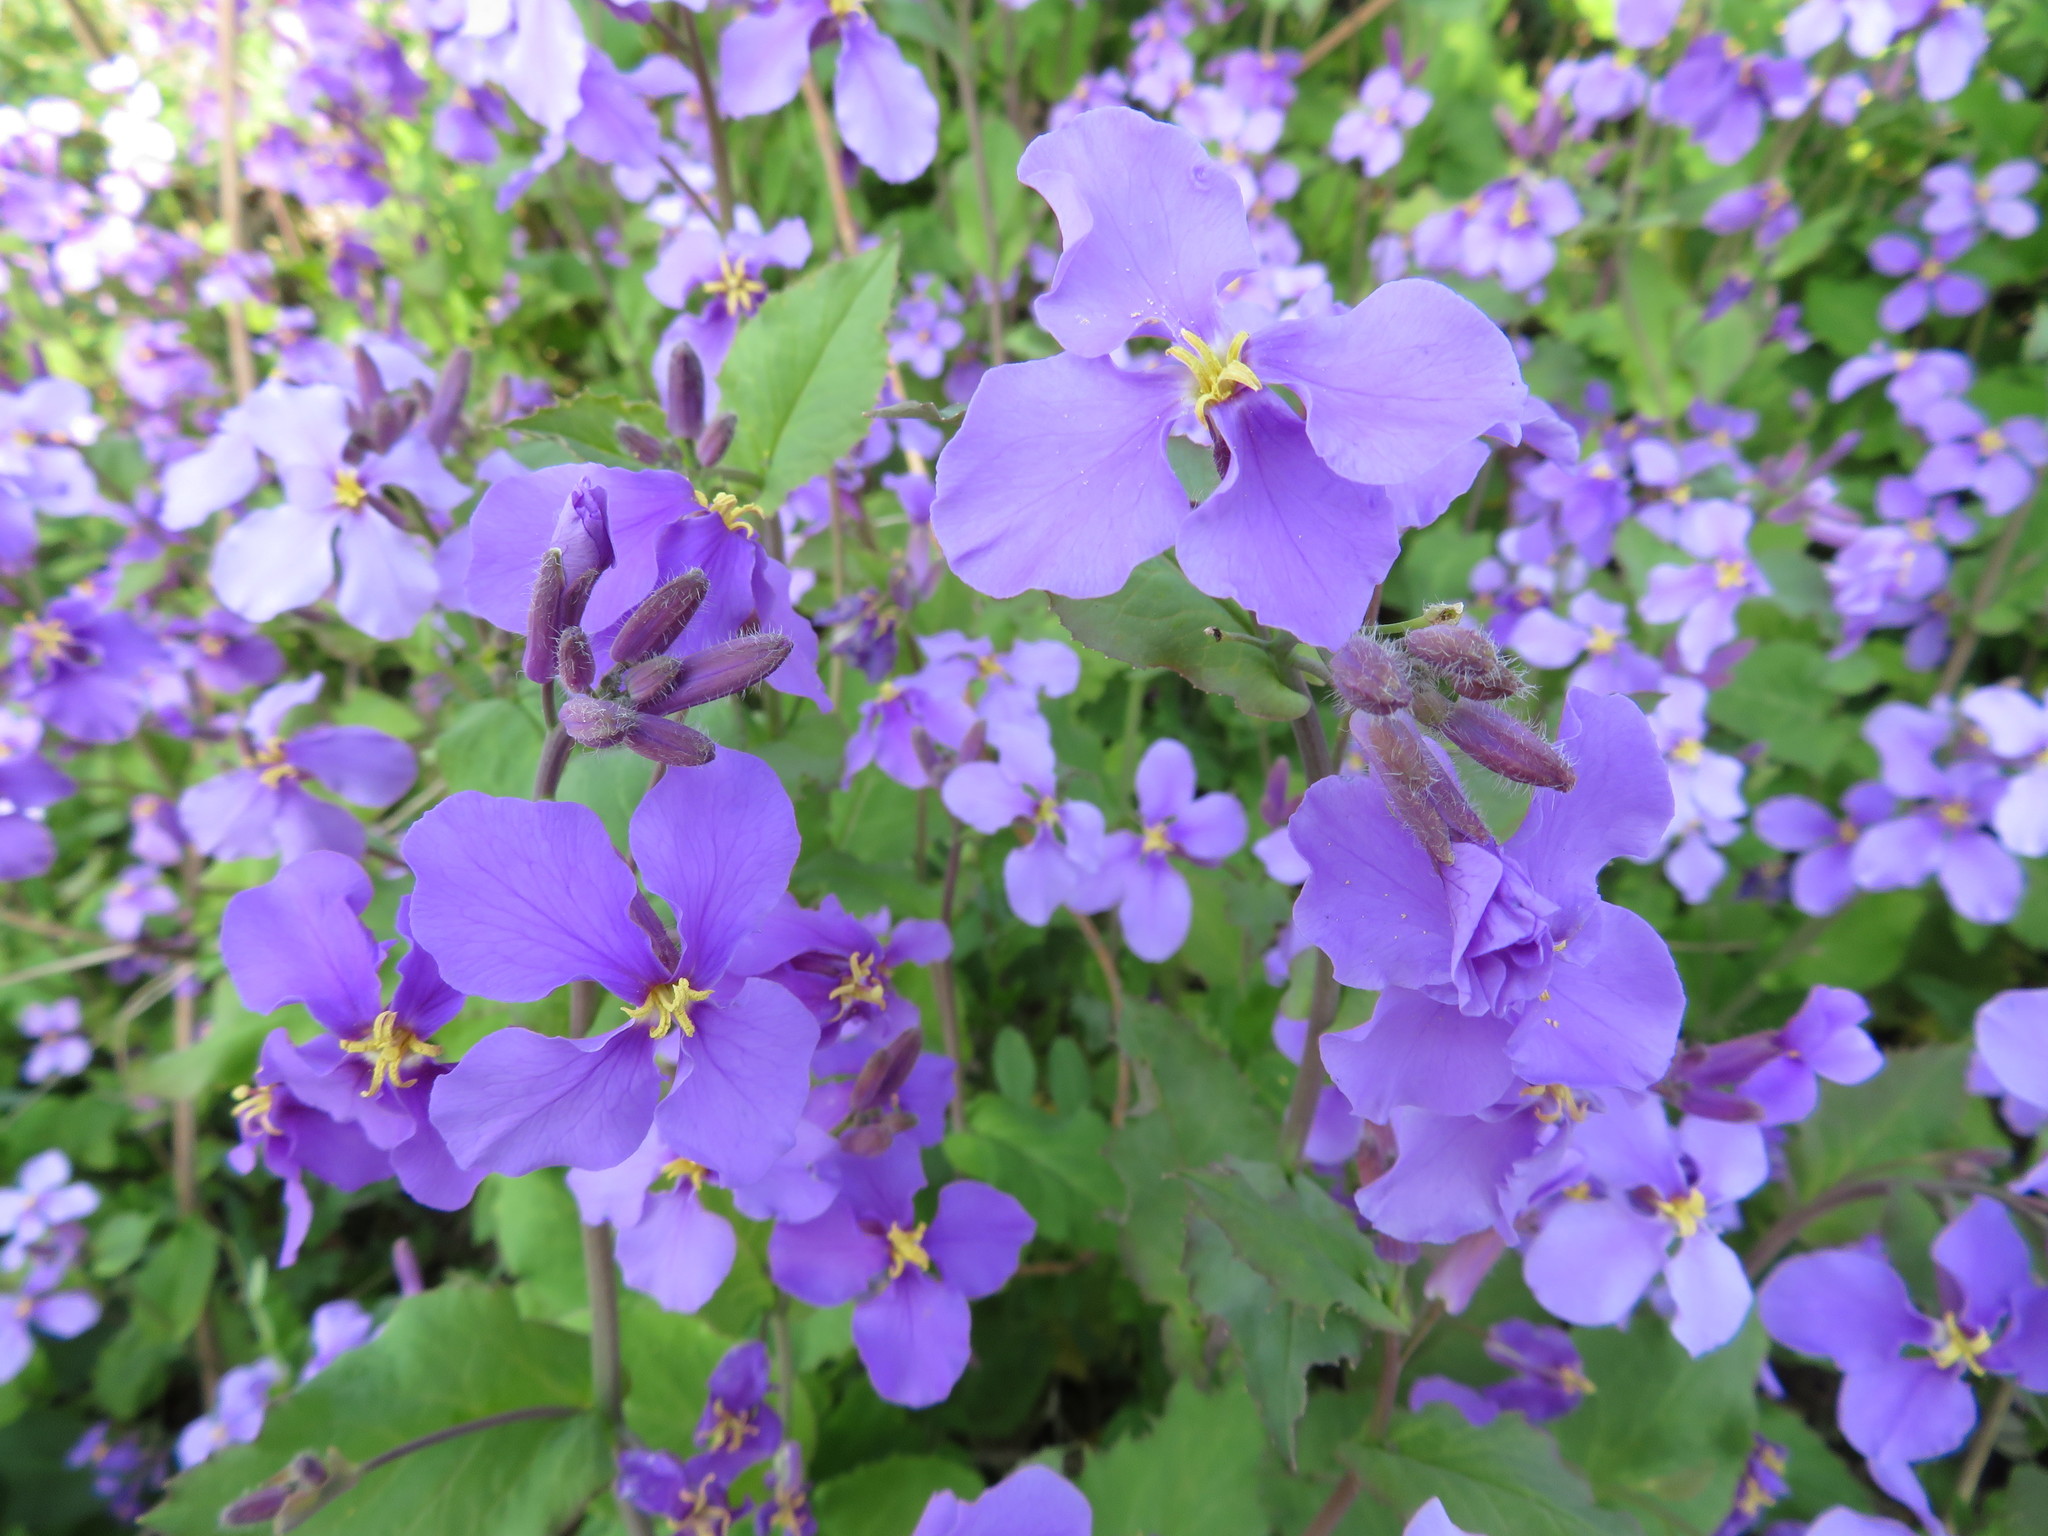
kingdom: Plantae
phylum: Tracheophyta
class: Magnoliopsida
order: Brassicales
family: Brassicaceae
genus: Orychophragmus
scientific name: Orychophragmus violaceus
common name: Mustard
